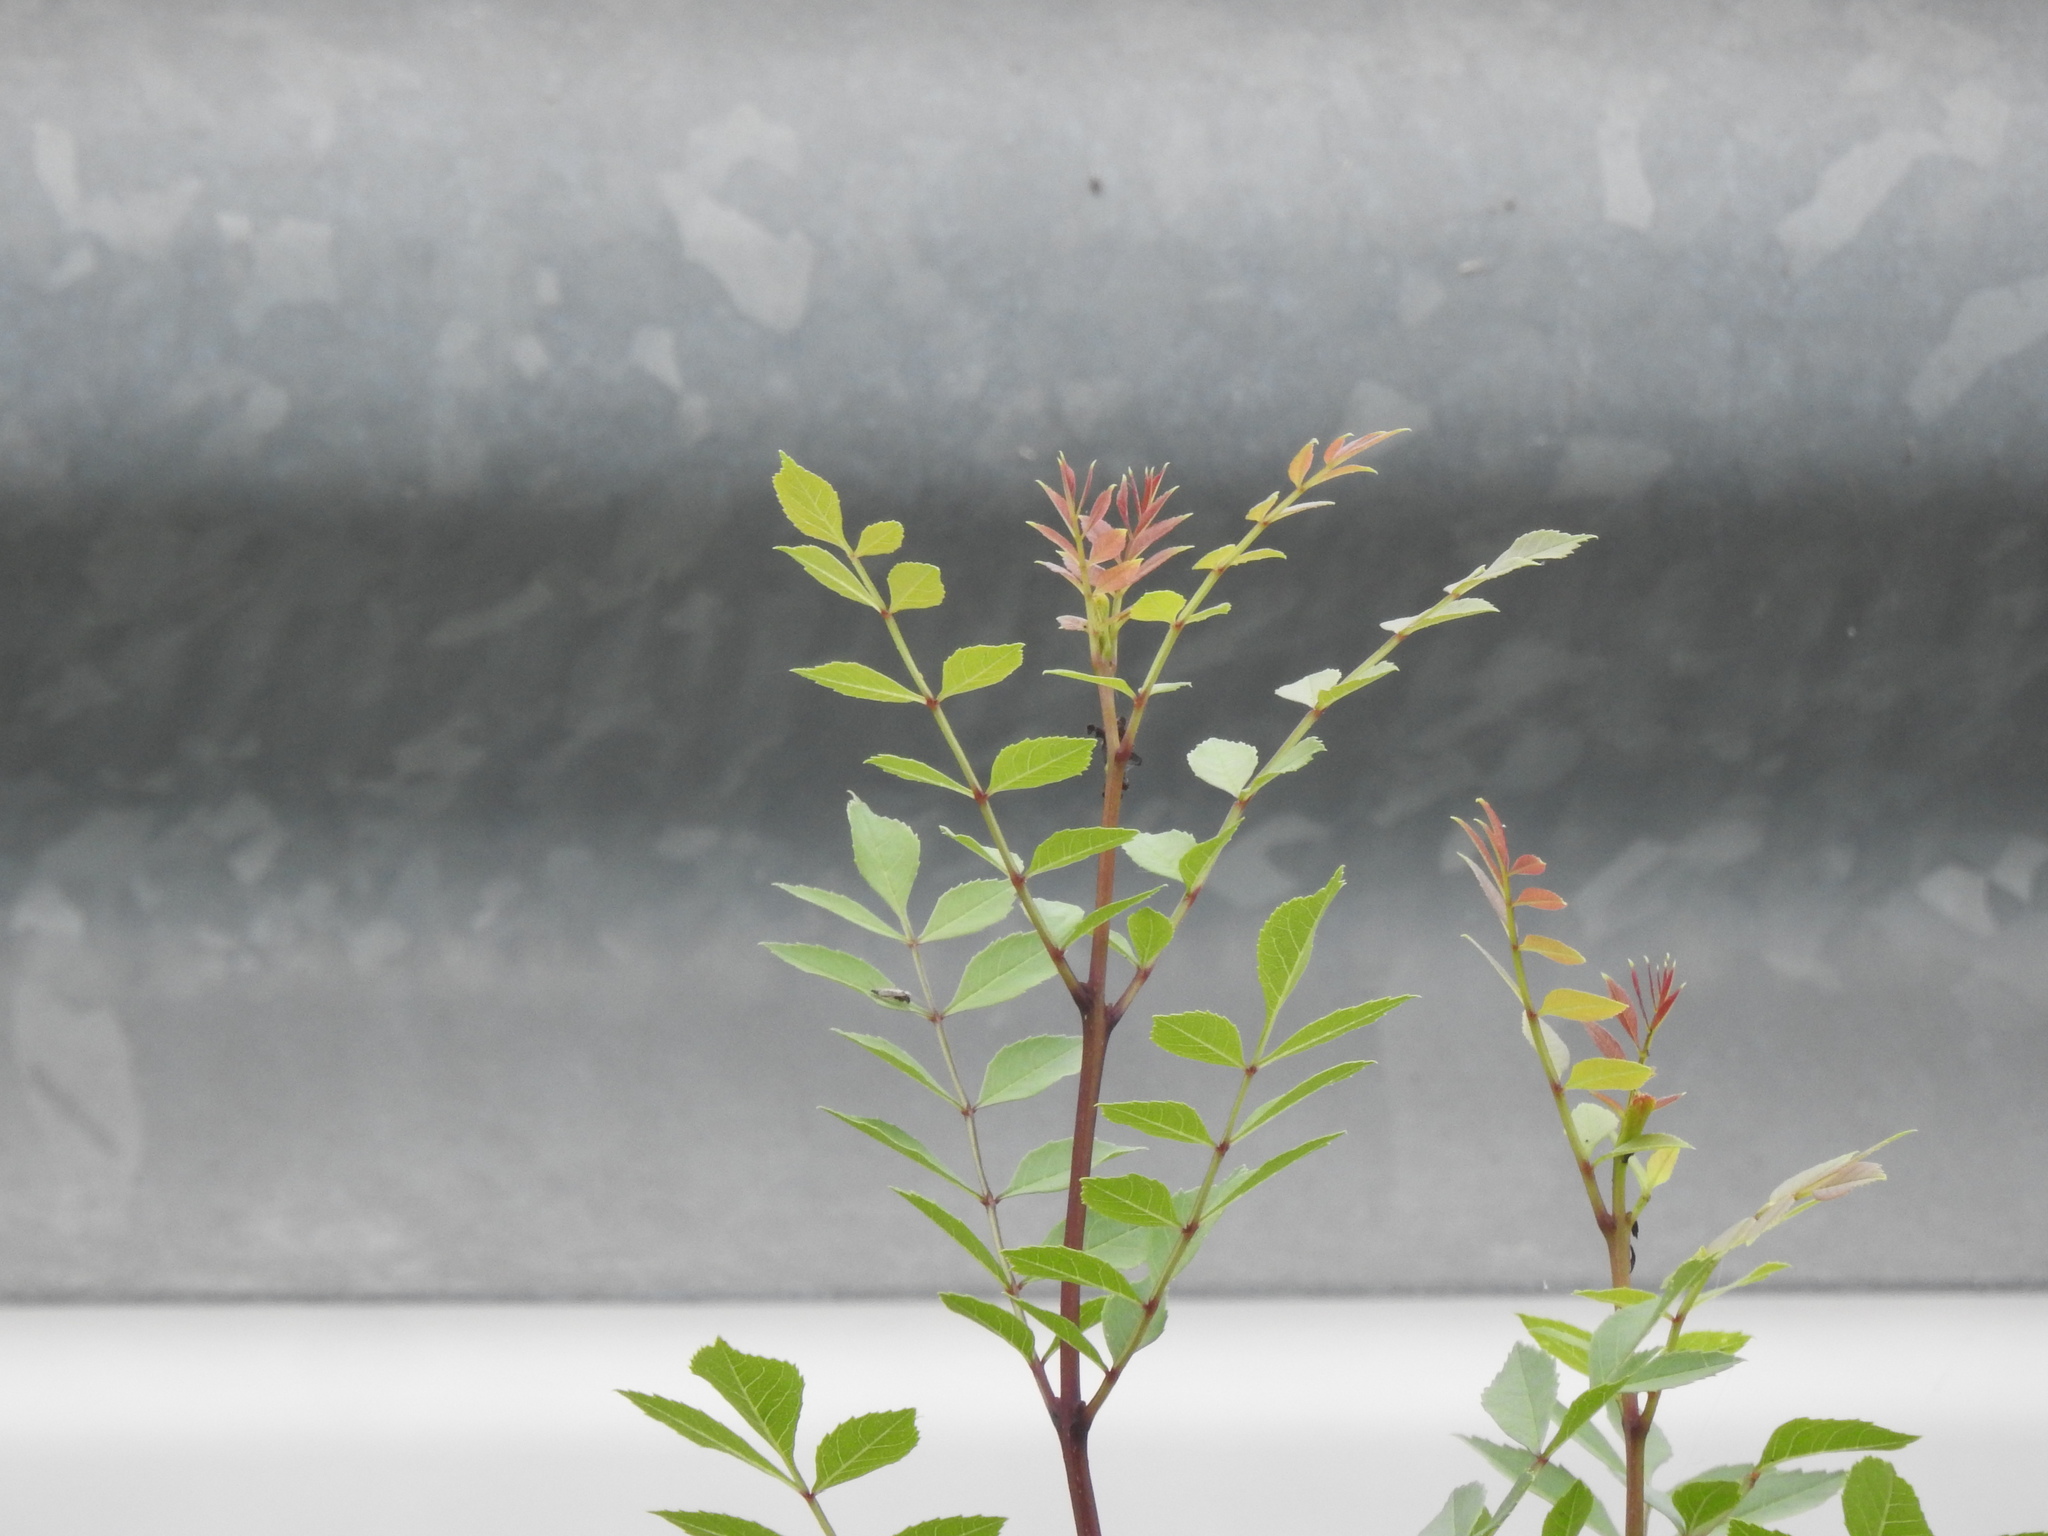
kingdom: Plantae
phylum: Tracheophyta
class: Magnoliopsida
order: Lamiales
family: Oleaceae
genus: Fraxinus
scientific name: Fraxinus angustifolia
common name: Narrow-leafed ash
